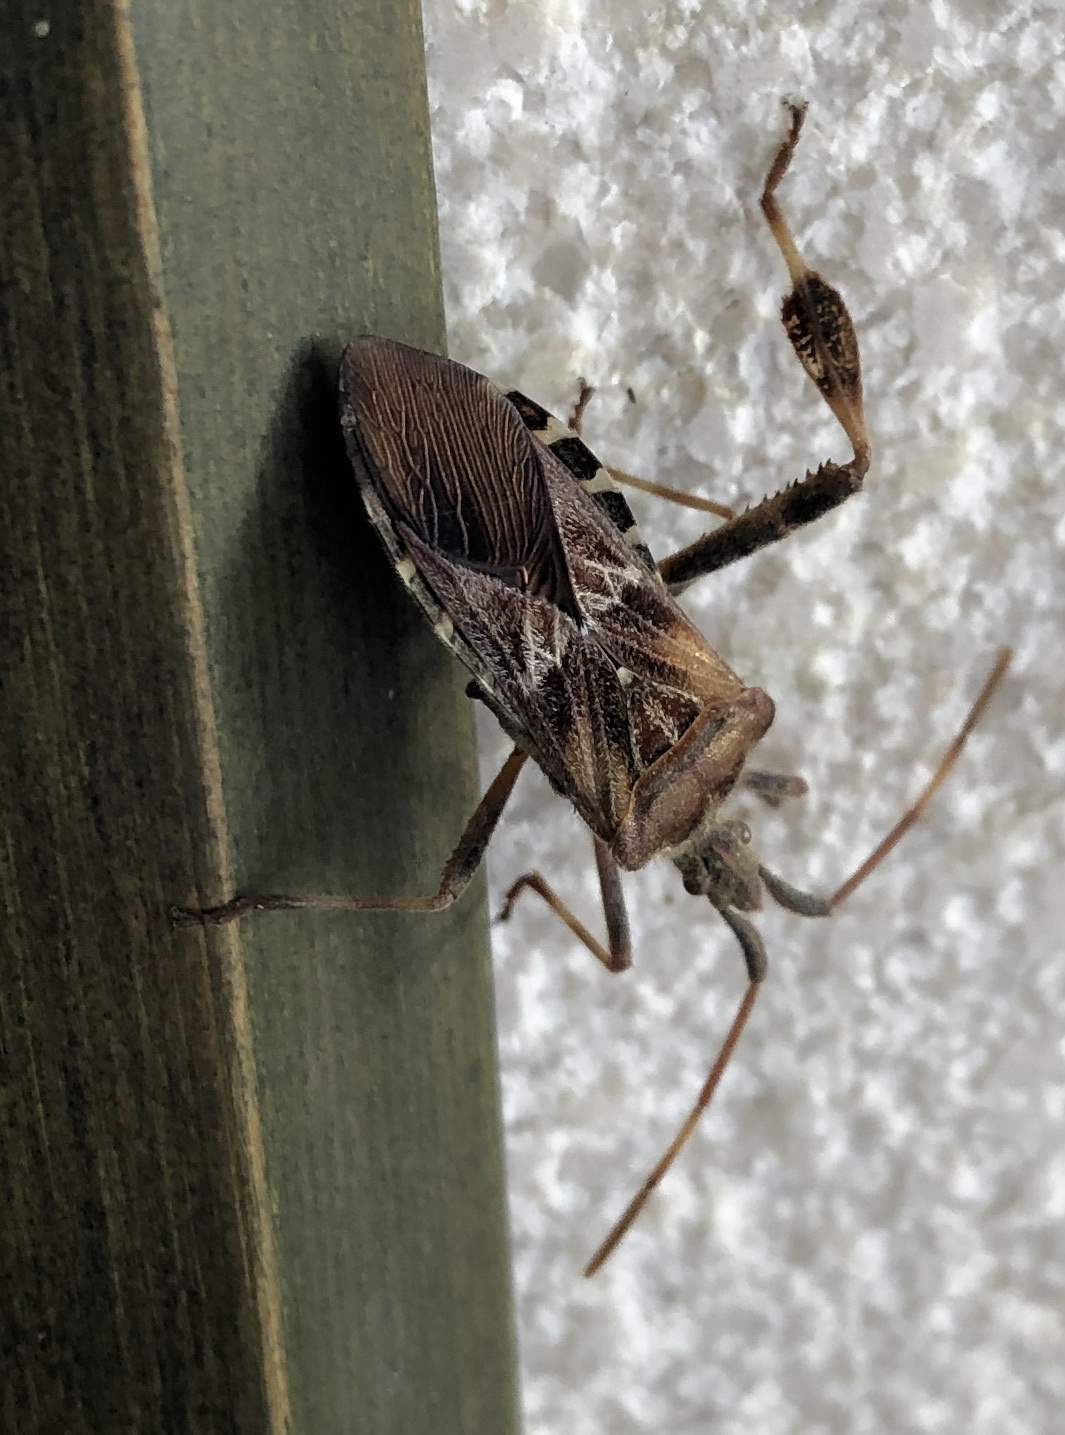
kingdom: Animalia
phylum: Arthropoda
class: Insecta
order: Hemiptera
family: Coreidae
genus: Leptoglossus
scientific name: Leptoglossus occidentalis
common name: Western conifer-seed bug
